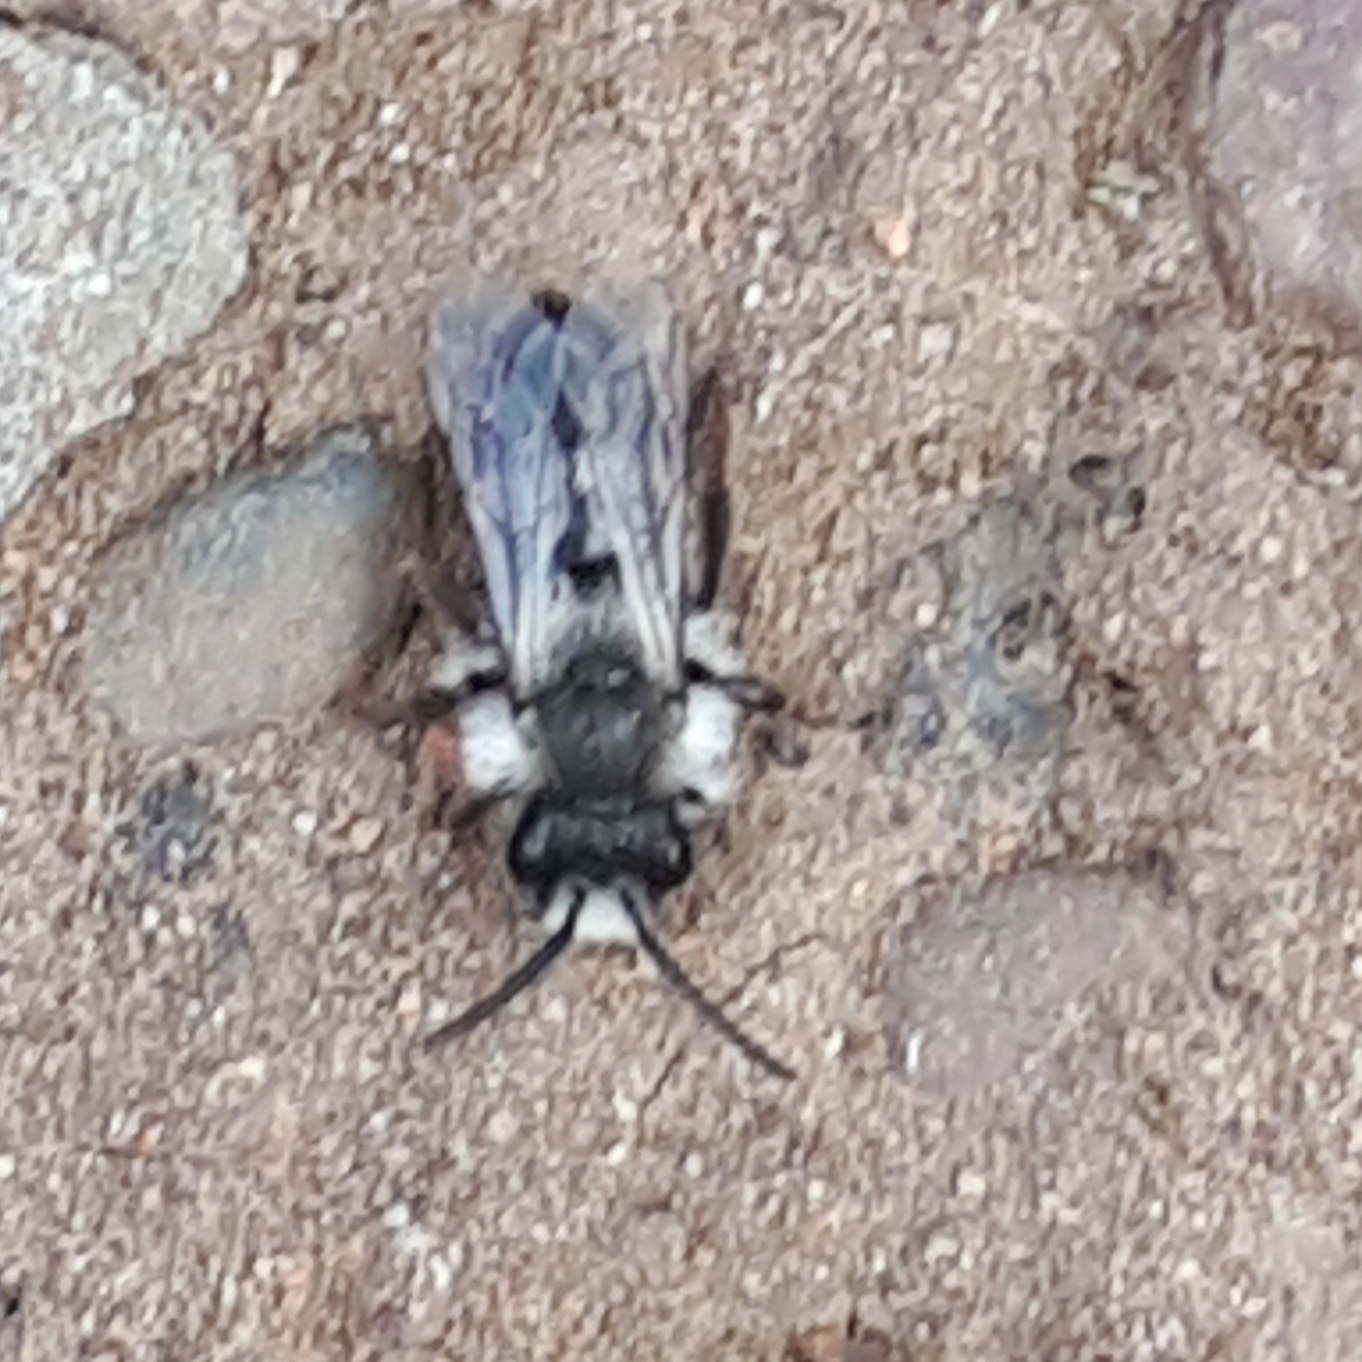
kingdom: Animalia
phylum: Arthropoda
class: Insecta
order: Hymenoptera
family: Andrenidae
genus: Andrena
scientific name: Andrena cineraria
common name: Ashy mining bee
